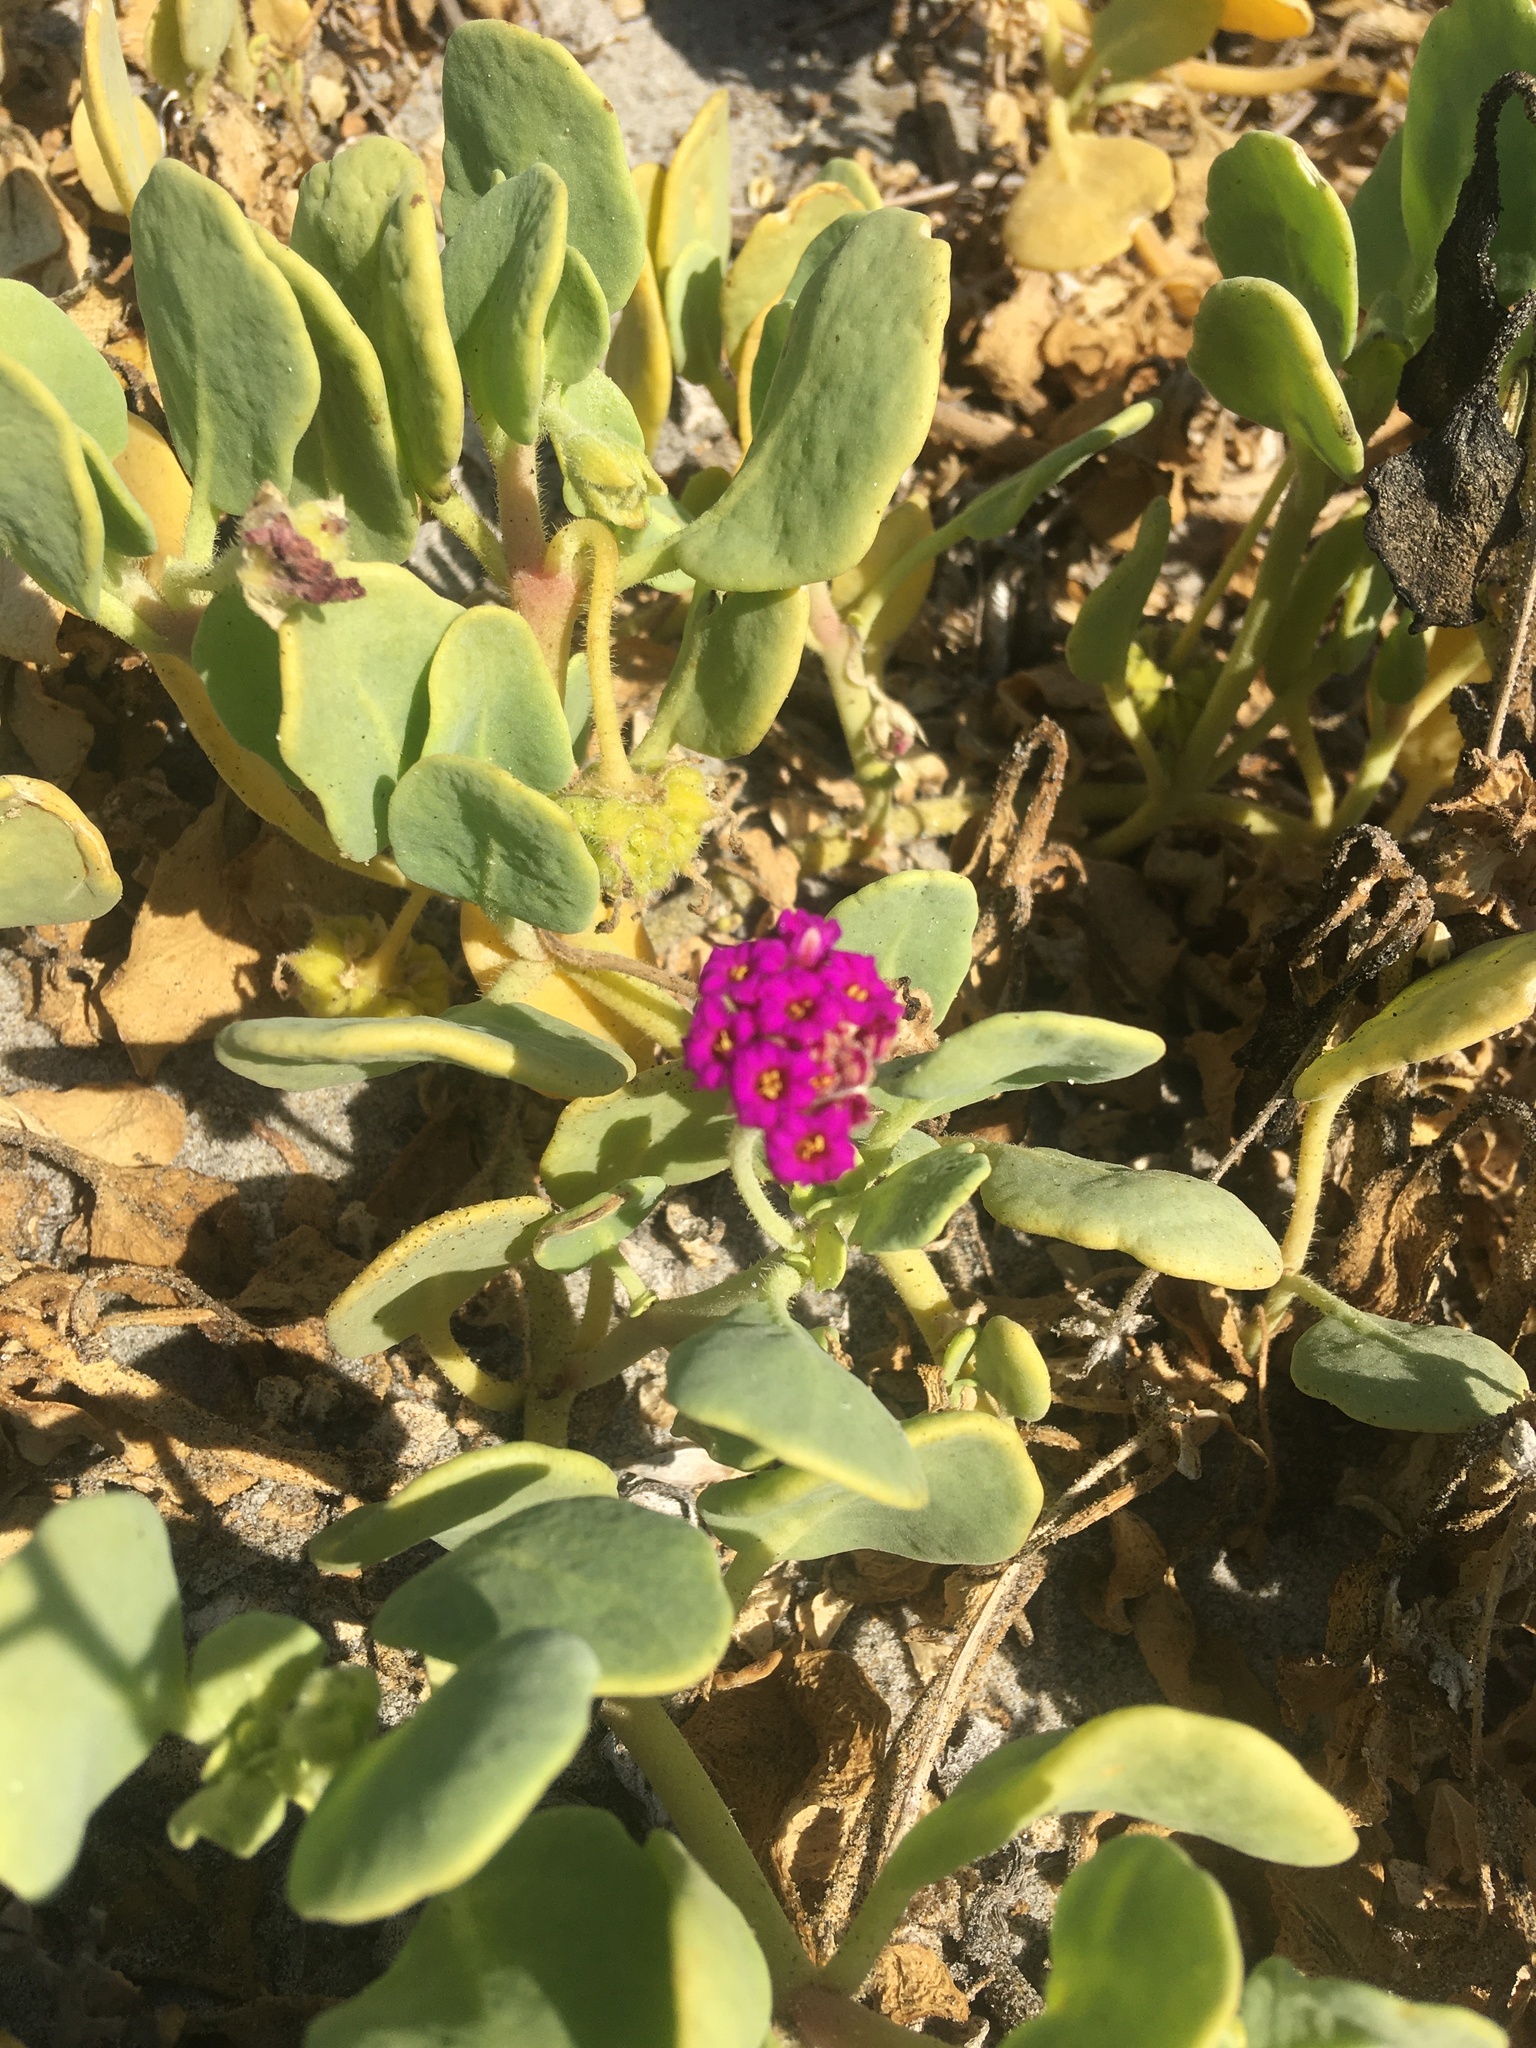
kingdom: Plantae
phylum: Tracheophyta
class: Magnoliopsida
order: Caryophyllales
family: Nyctaginaceae
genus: Abronia
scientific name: Abronia maritima
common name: Red sand-verbena
